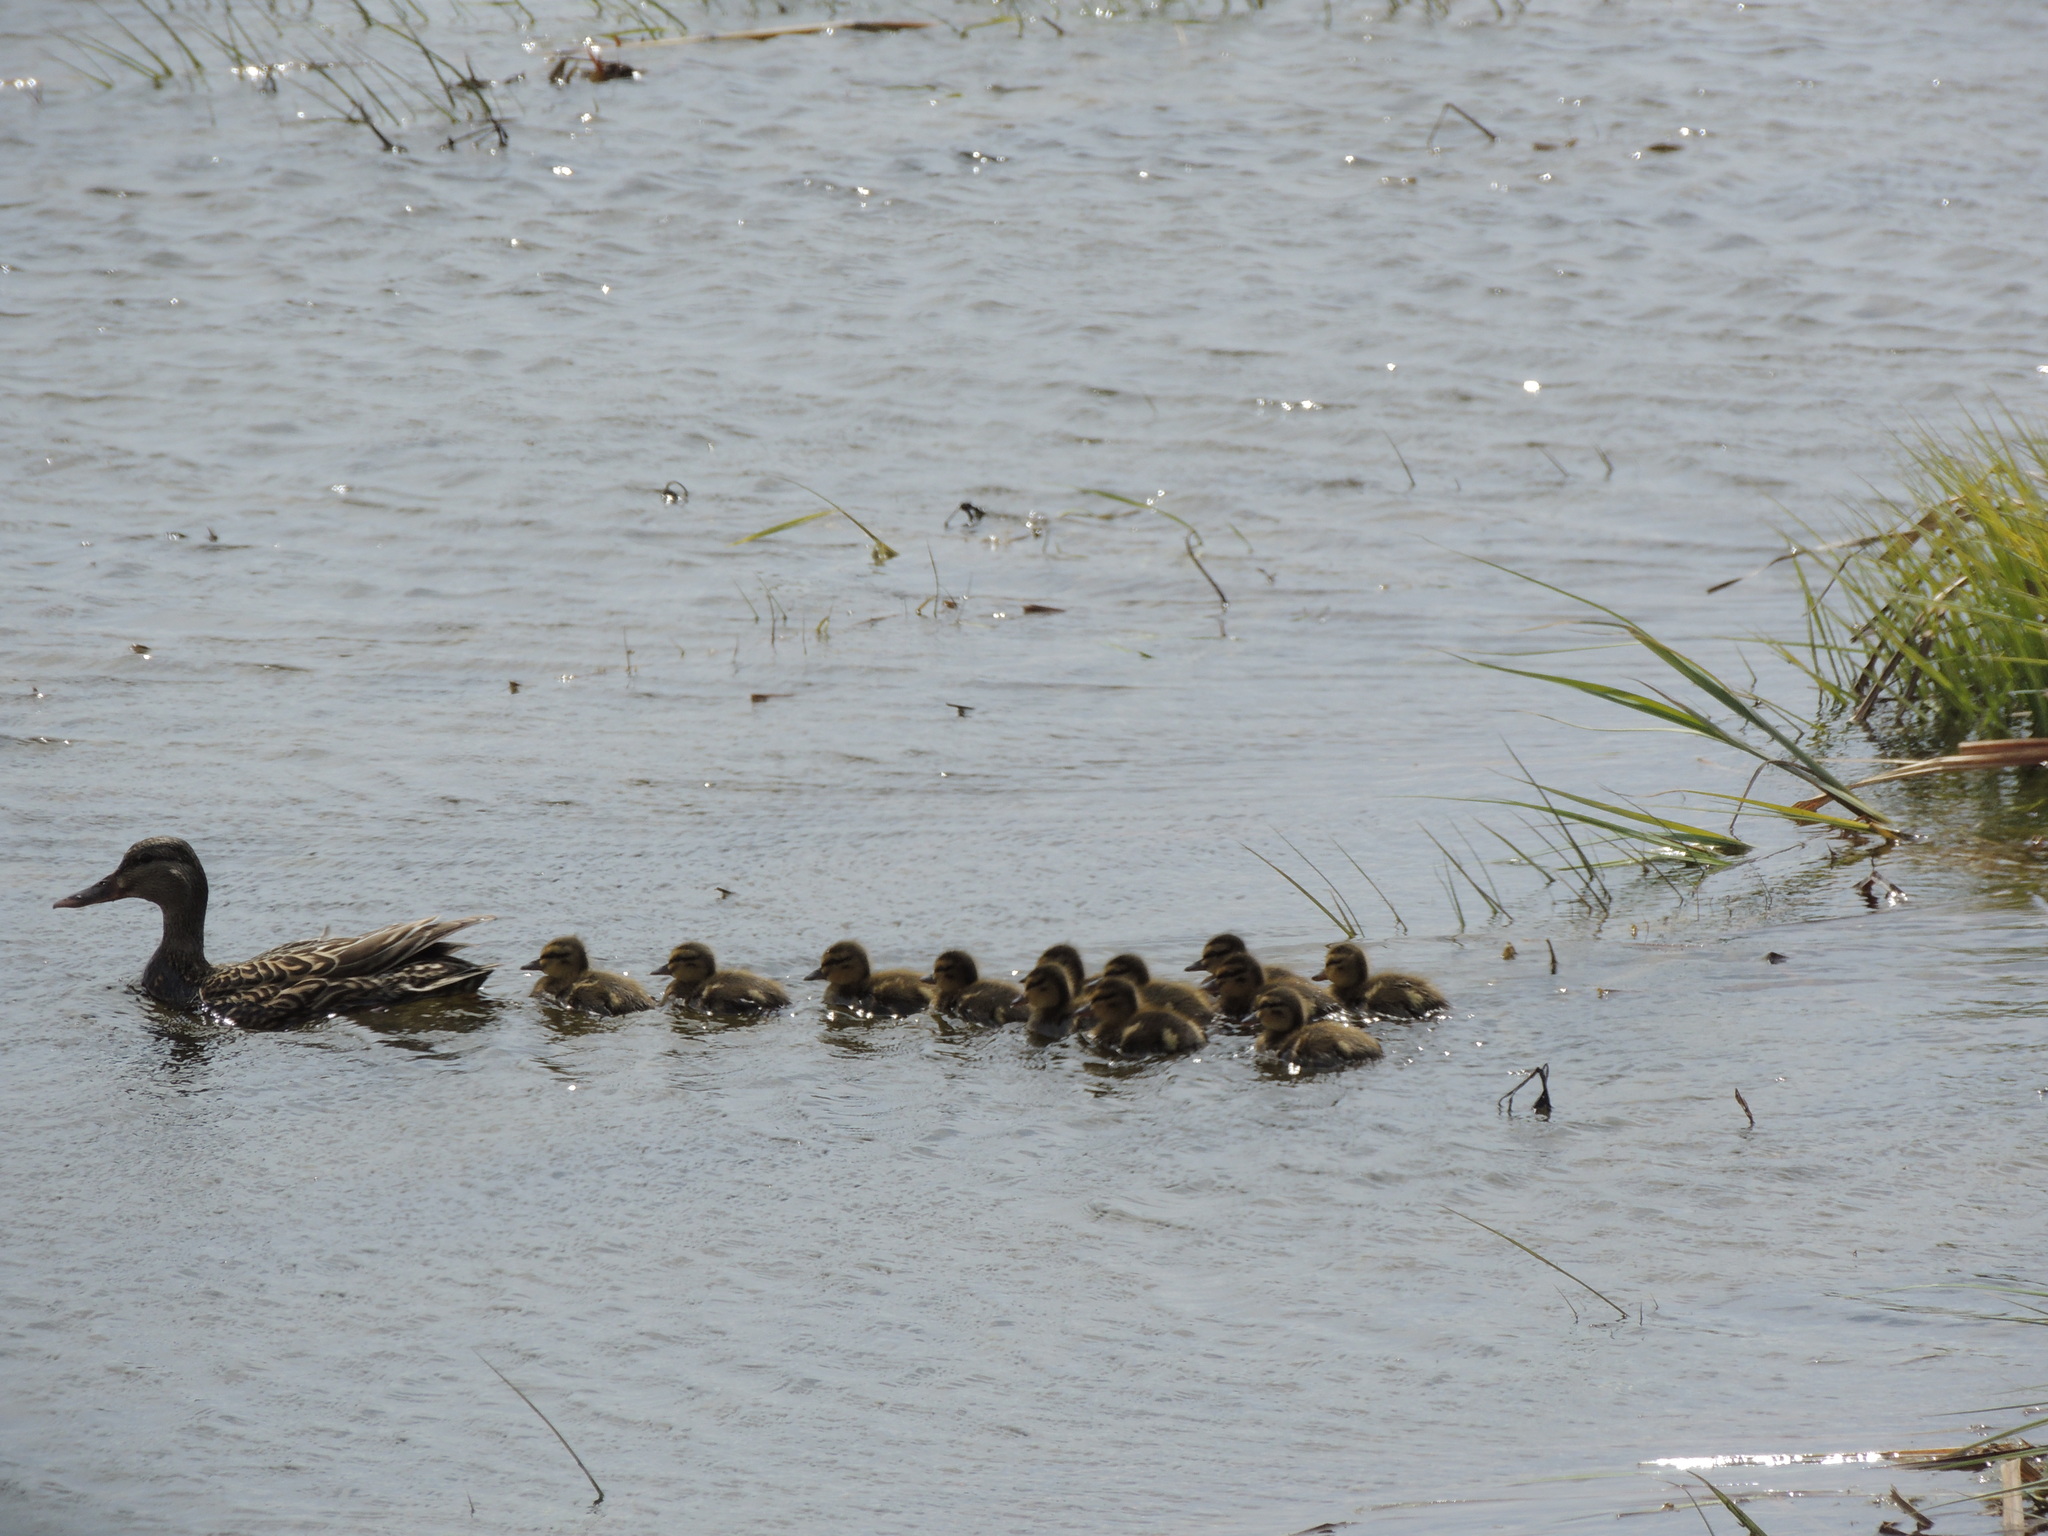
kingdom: Animalia
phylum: Chordata
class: Aves
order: Anseriformes
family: Anatidae
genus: Anas
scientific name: Anas platyrhynchos
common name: Mallard
